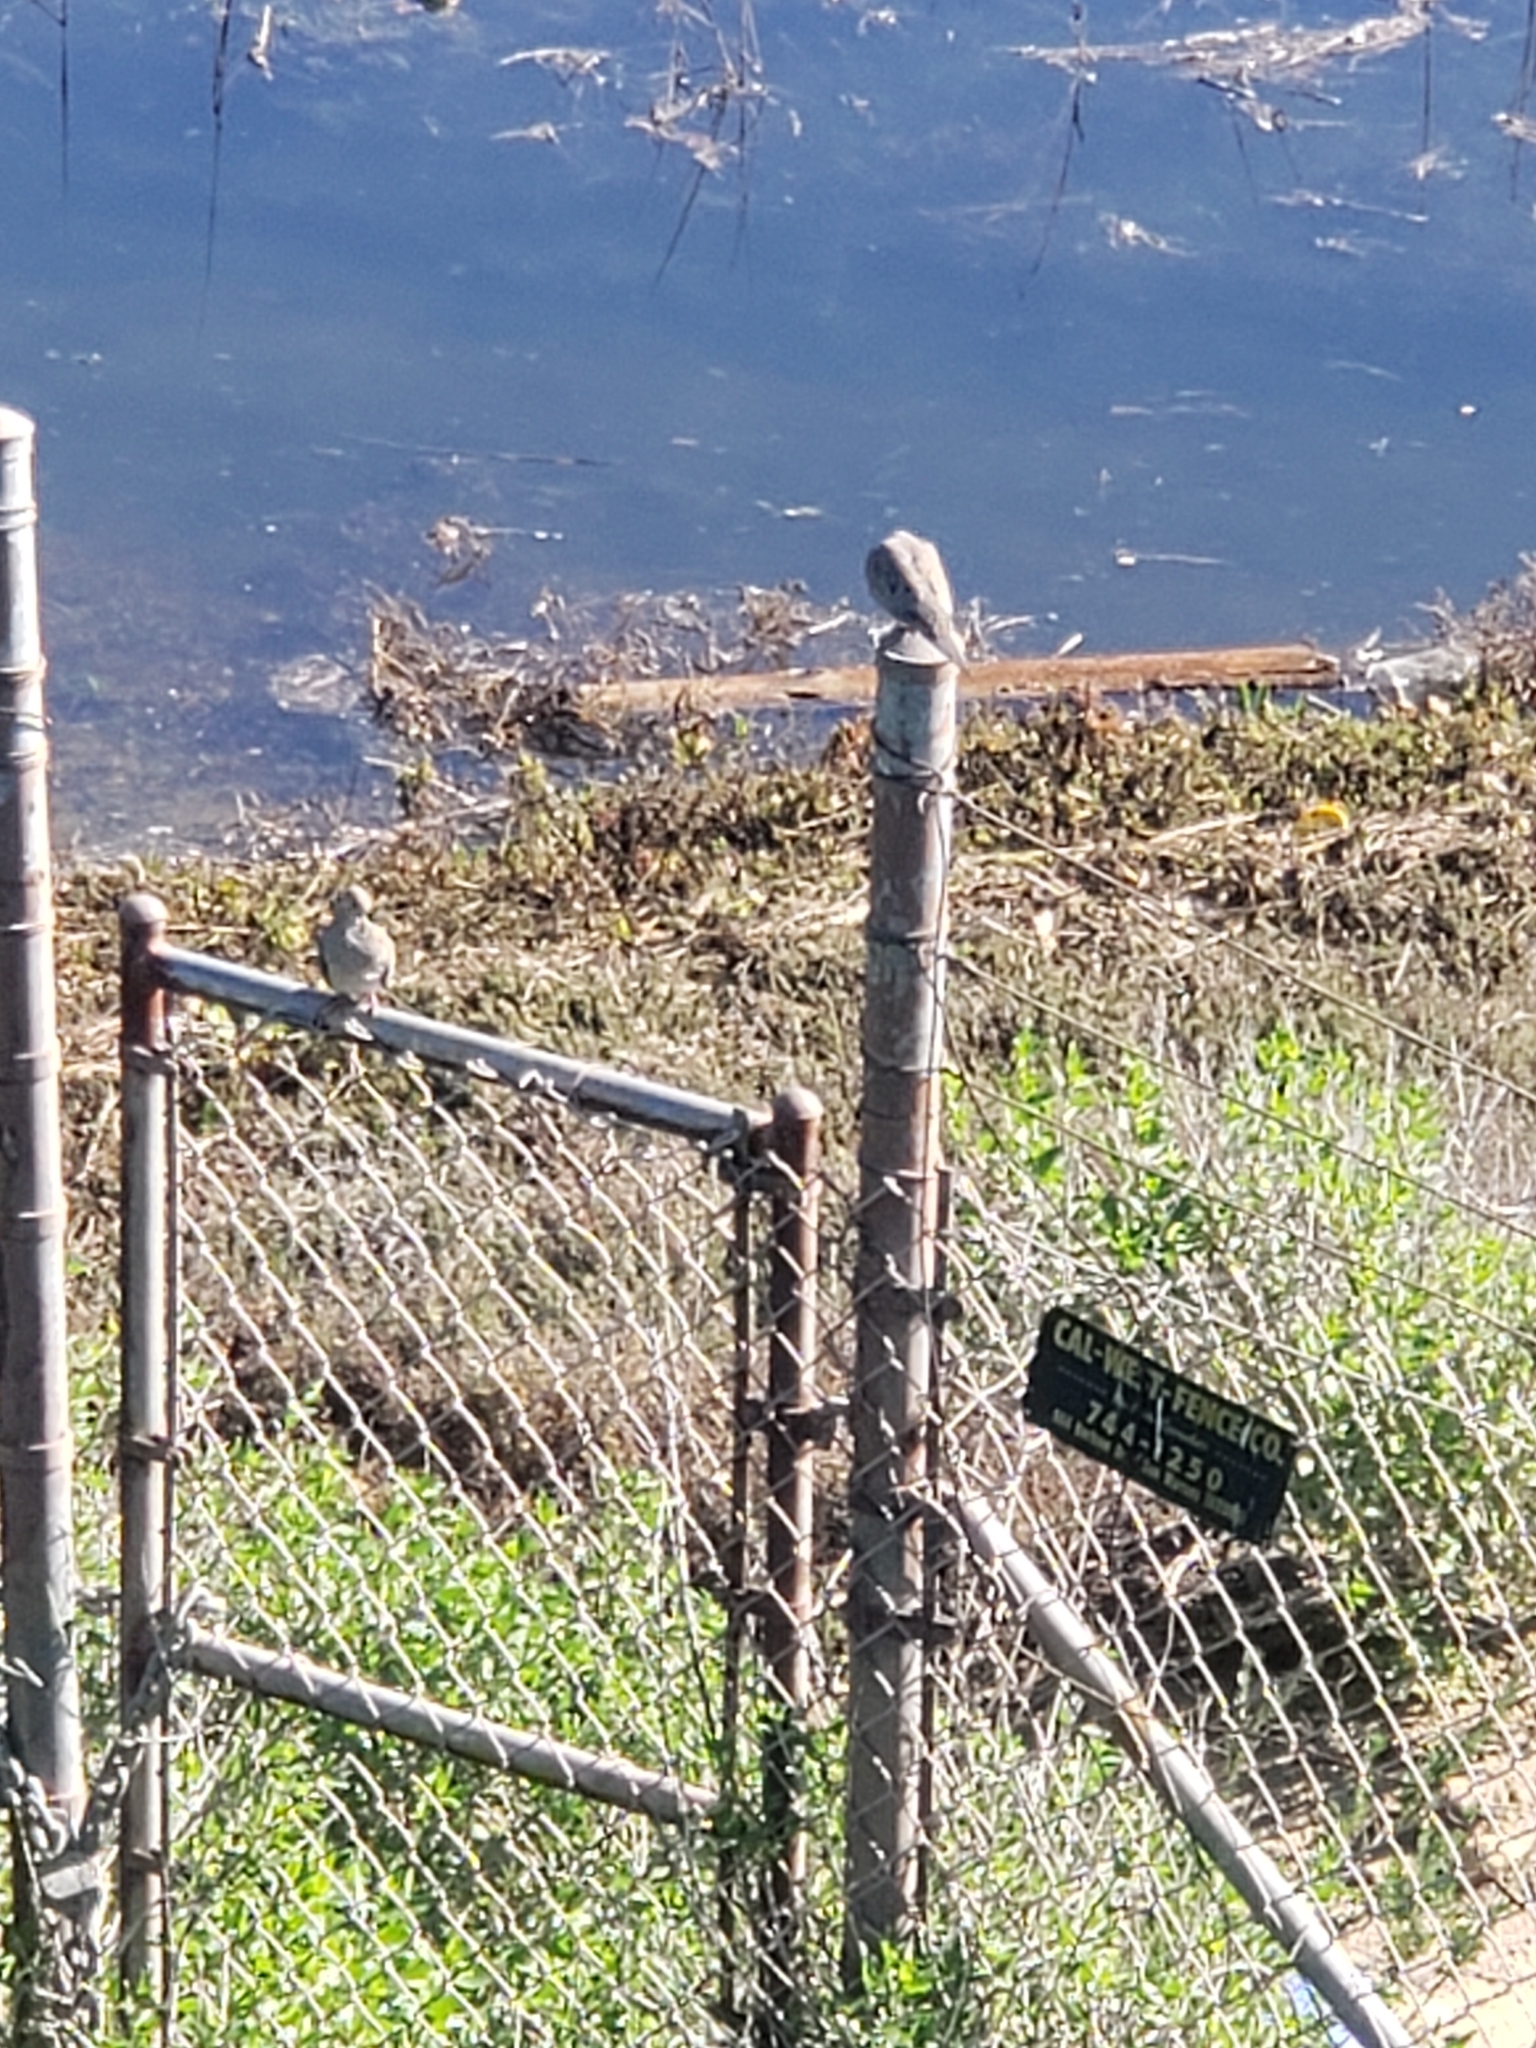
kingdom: Animalia
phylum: Chordata
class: Aves
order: Columbiformes
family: Columbidae
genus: Zenaida
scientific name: Zenaida macroura
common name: Mourning dove
